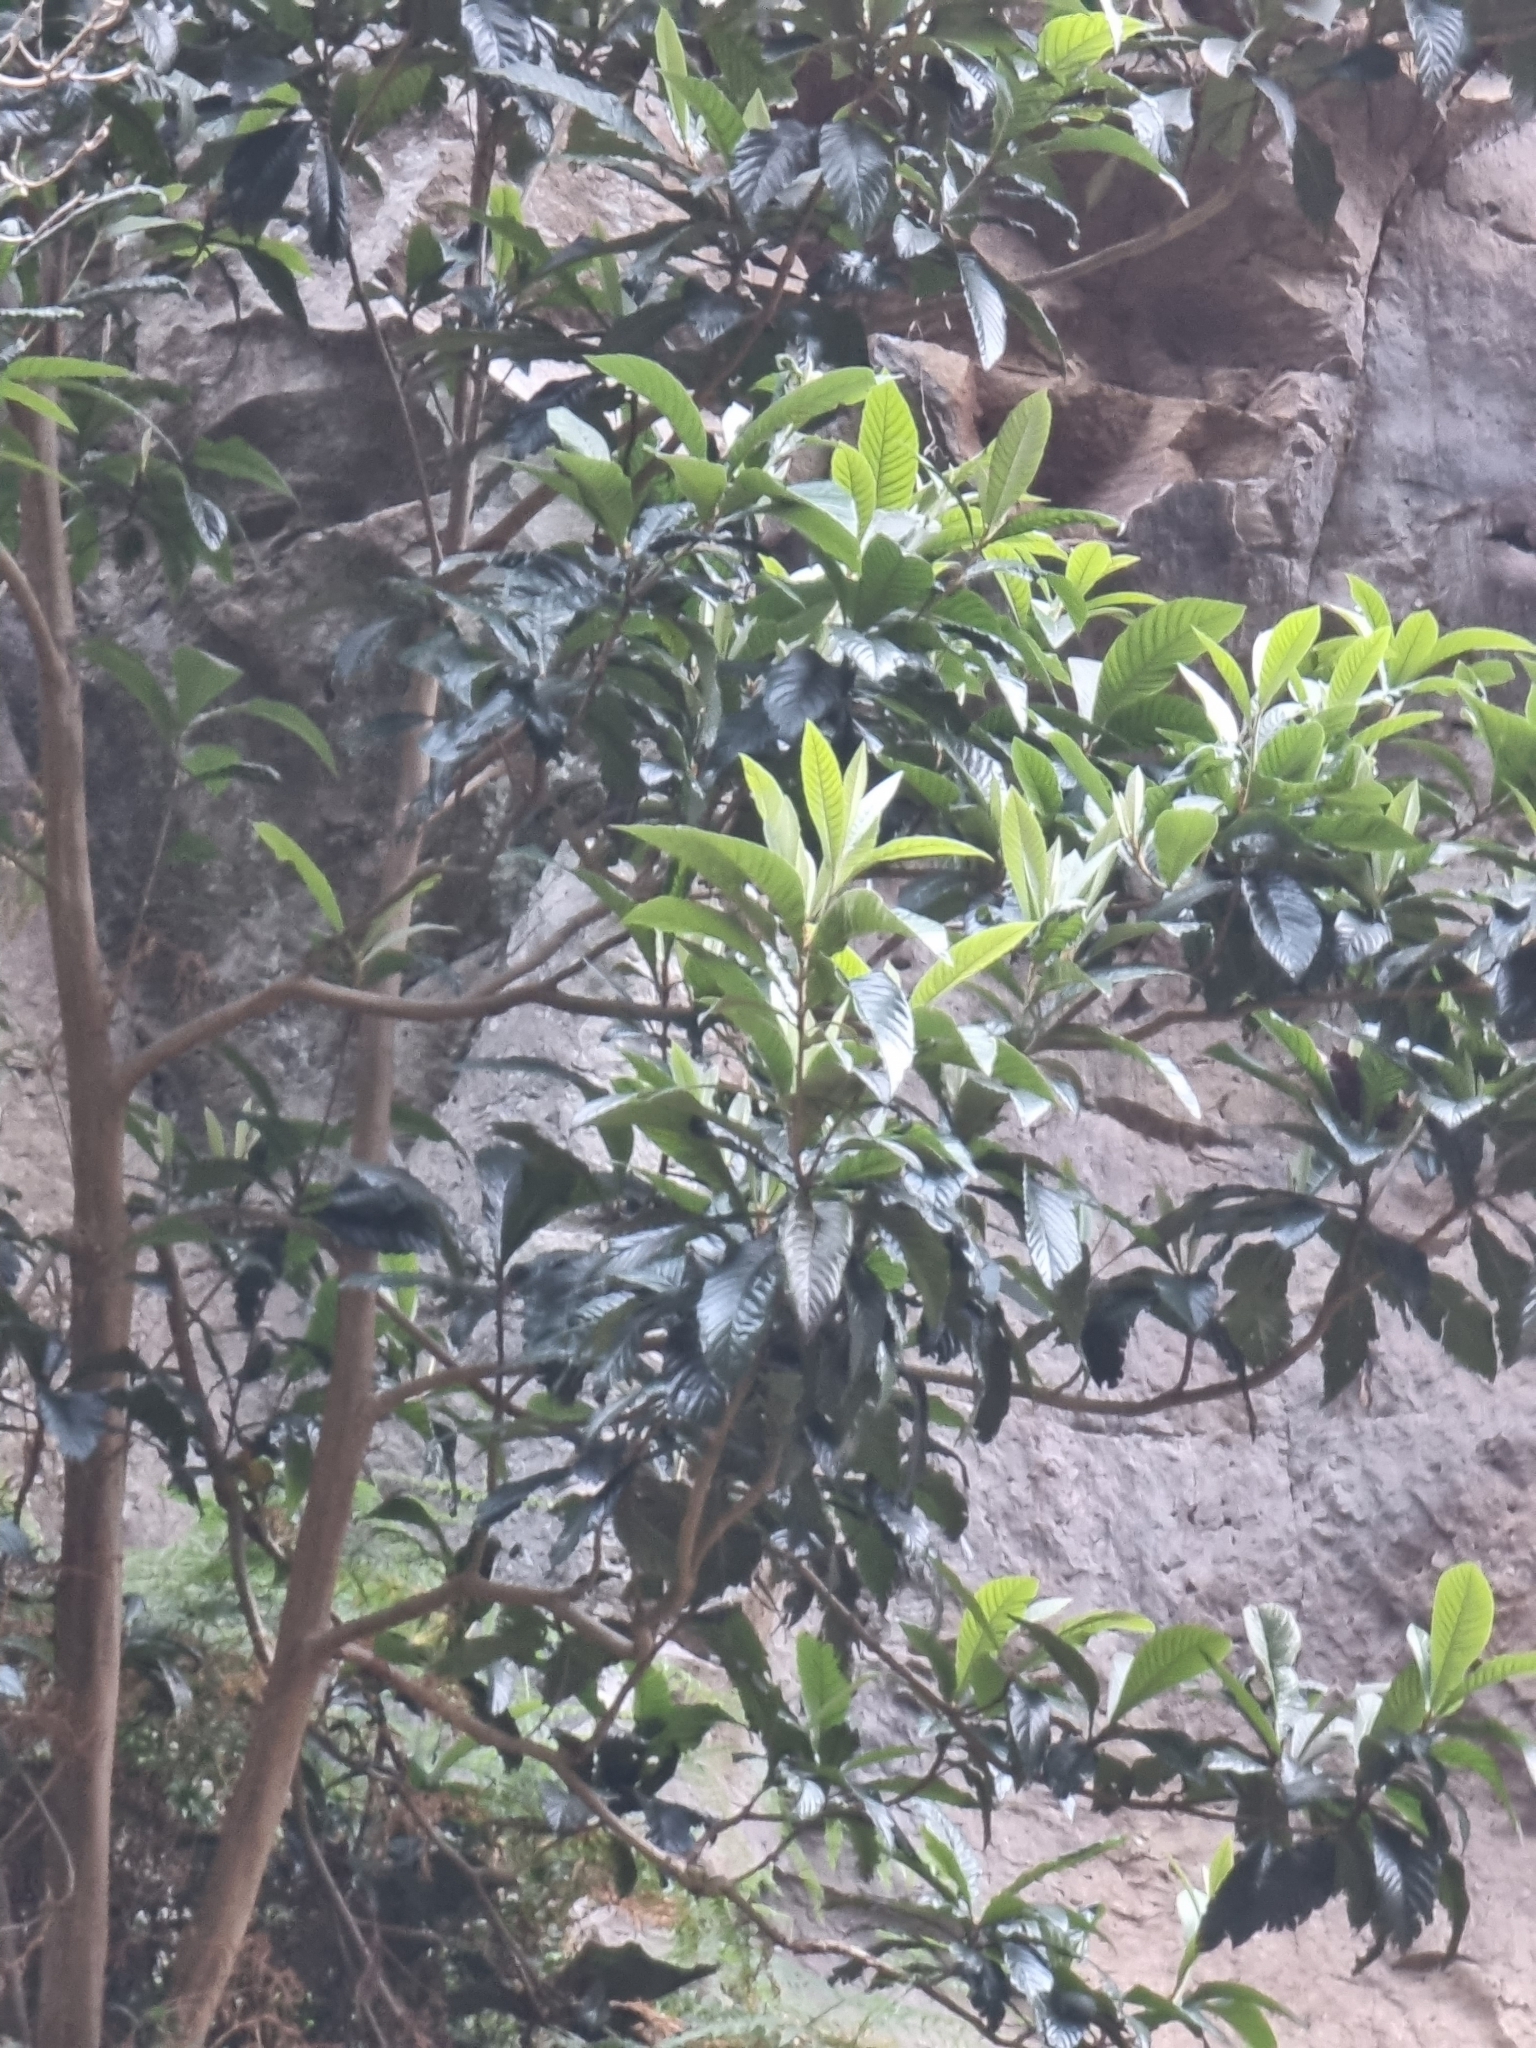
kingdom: Plantae
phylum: Tracheophyta
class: Magnoliopsida
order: Rosales
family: Rosaceae
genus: Rhaphiolepis
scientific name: Rhaphiolepis bibas
